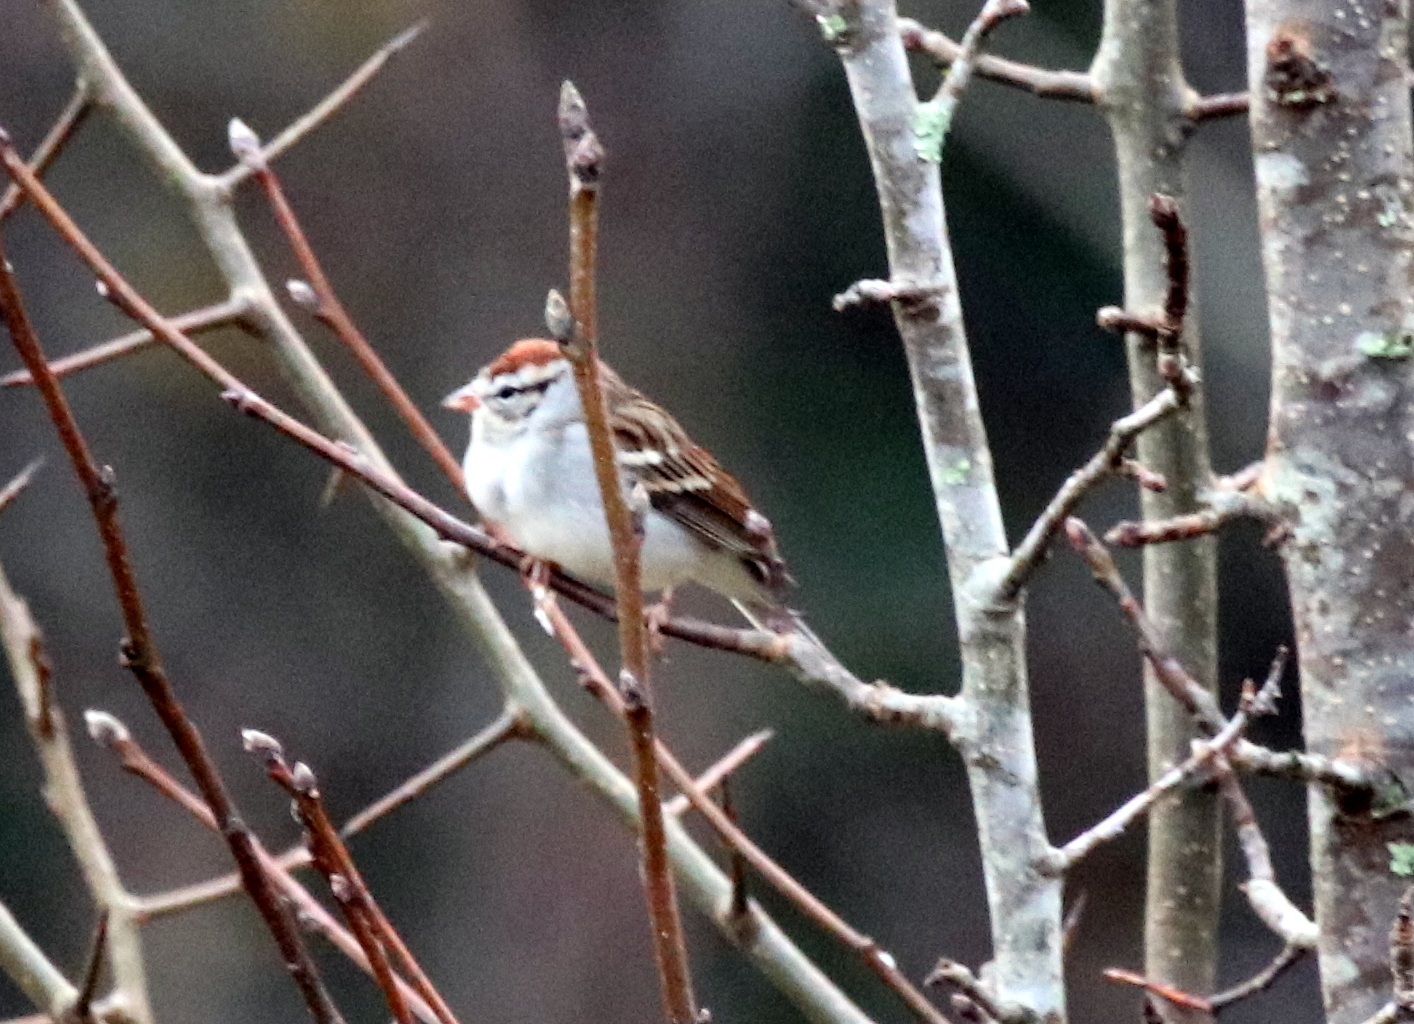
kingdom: Animalia
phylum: Chordata
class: Aves
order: Passeriformes
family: Passerellidae
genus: Spizella
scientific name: Spizella passerina
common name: Chipping sparrow
